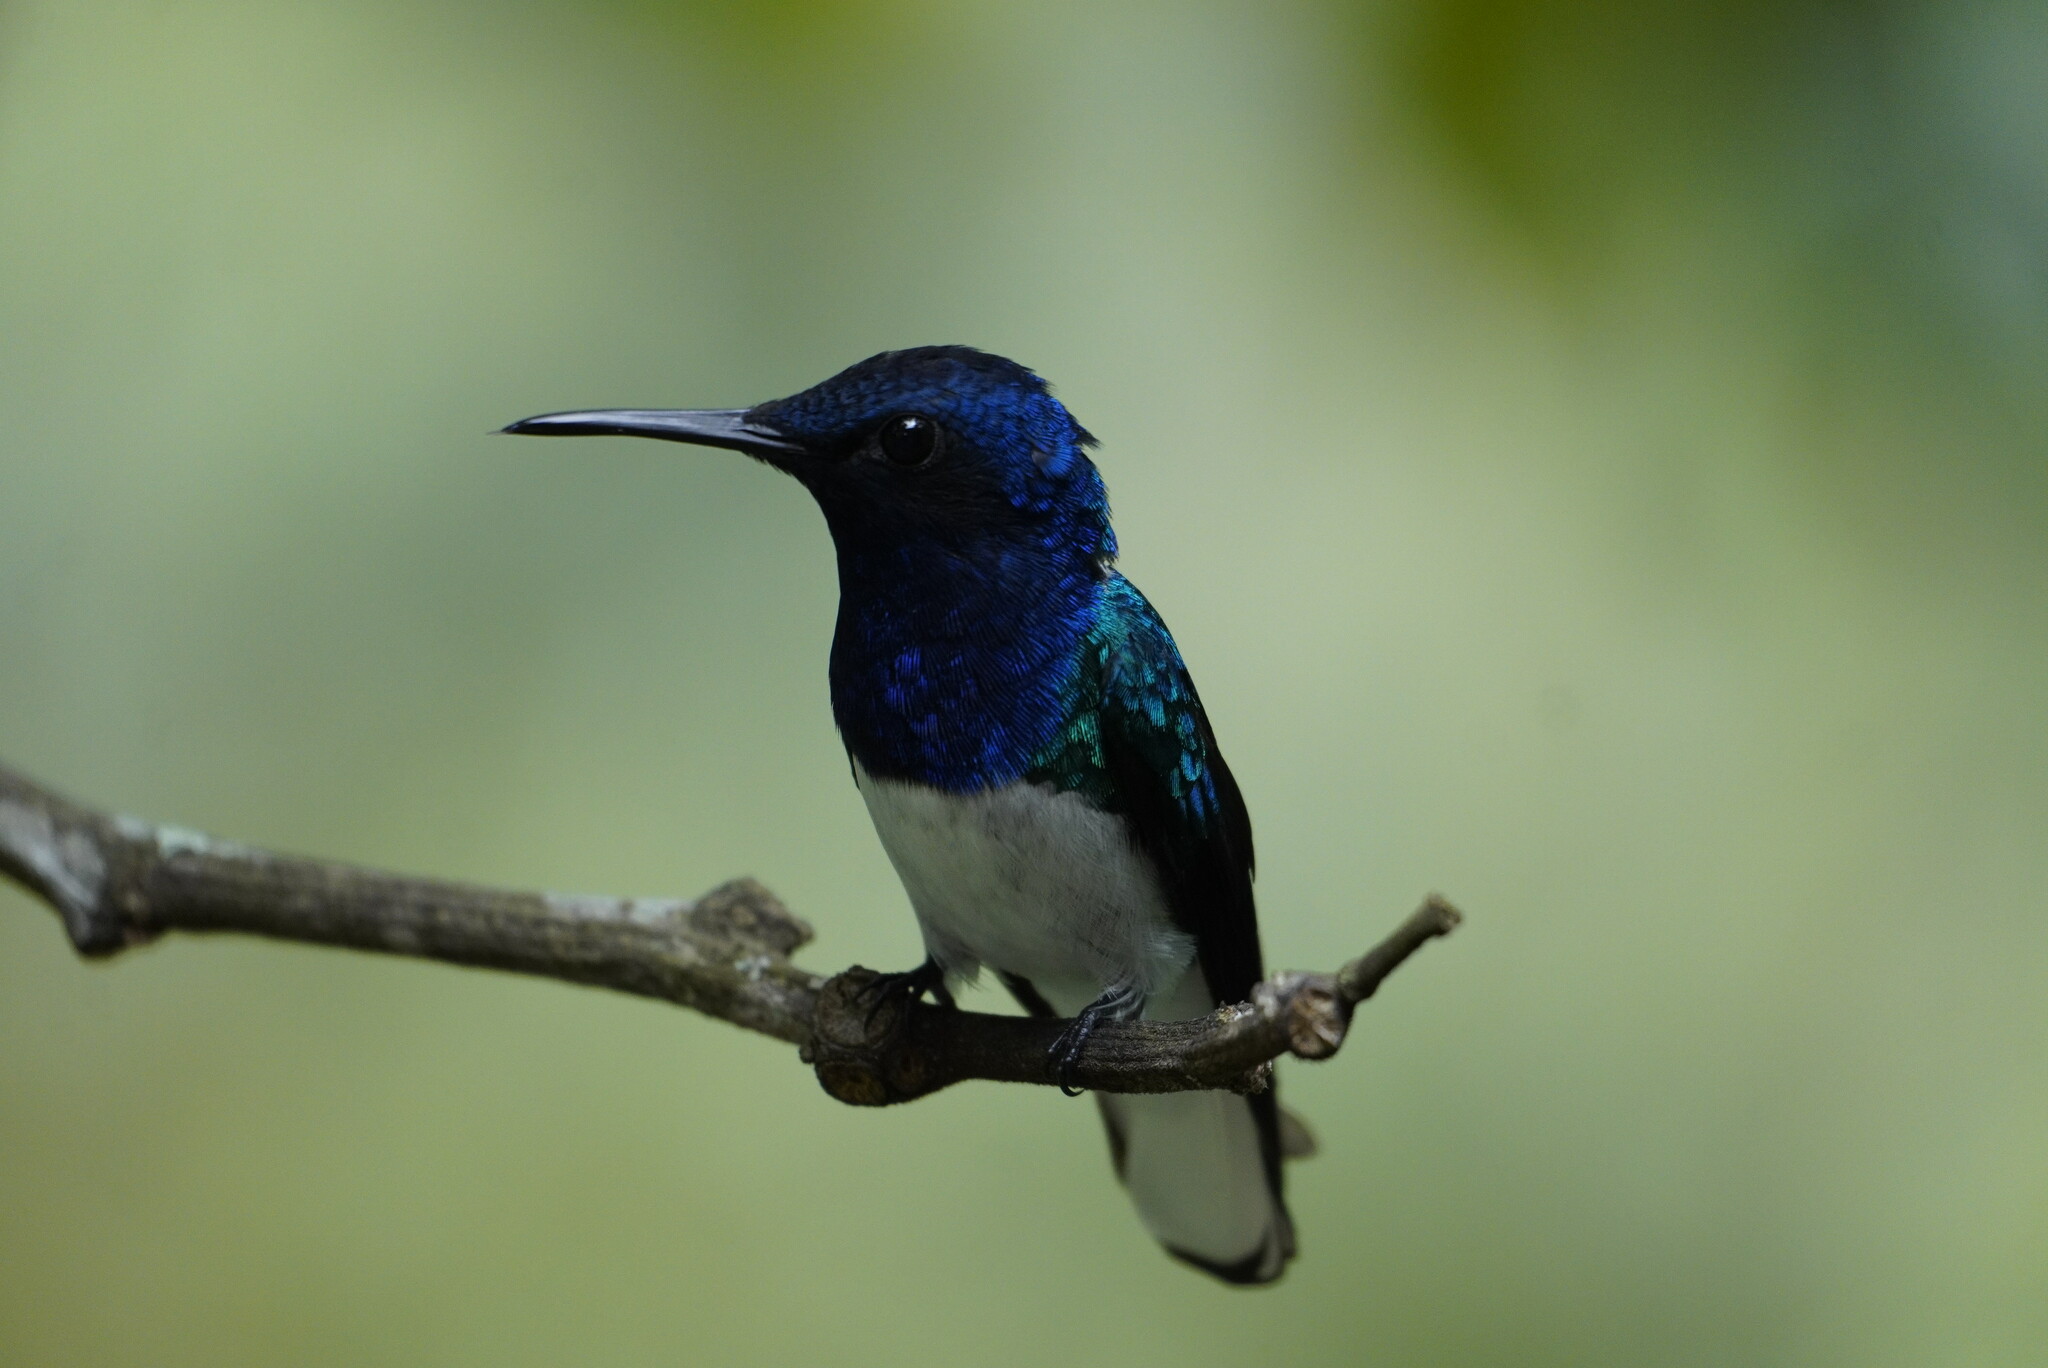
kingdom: Animalia
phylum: Chordata
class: Aves
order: Apodiformes
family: Trochilidae
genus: Florisuga
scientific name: Florisuga mellivora
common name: White-necked jacobin
